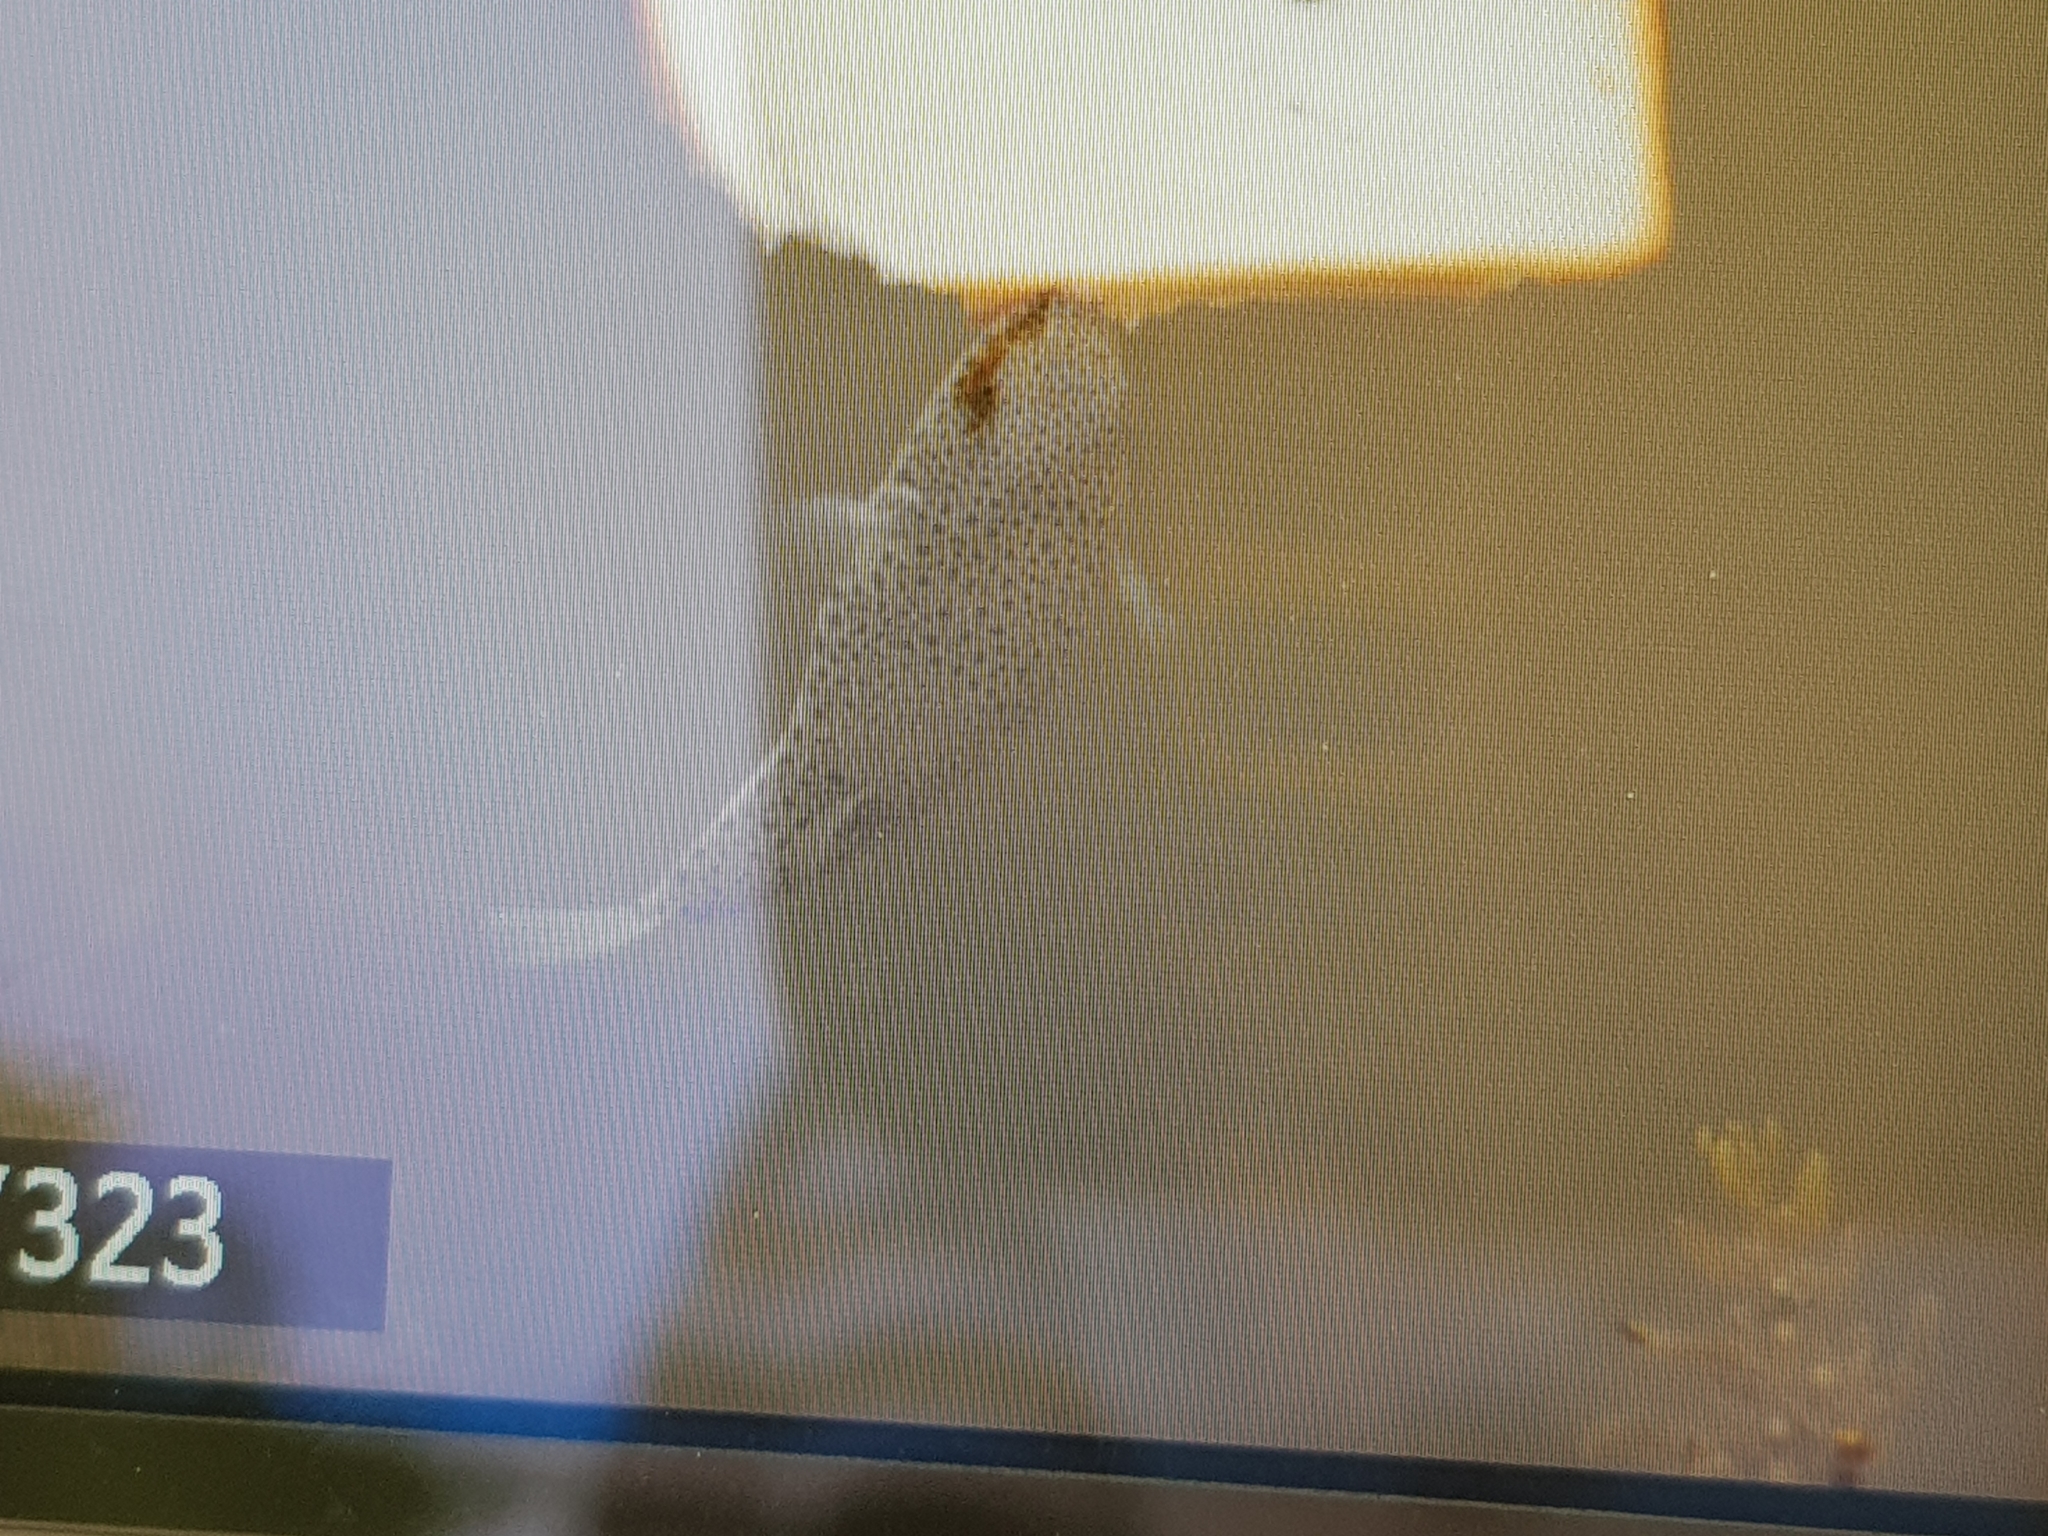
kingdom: Animalia
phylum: Chordata
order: Tetraodontiformes
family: Tetraodontidae
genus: Tetractenos
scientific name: Tetractenos hamiltoni
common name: Common toadfish
